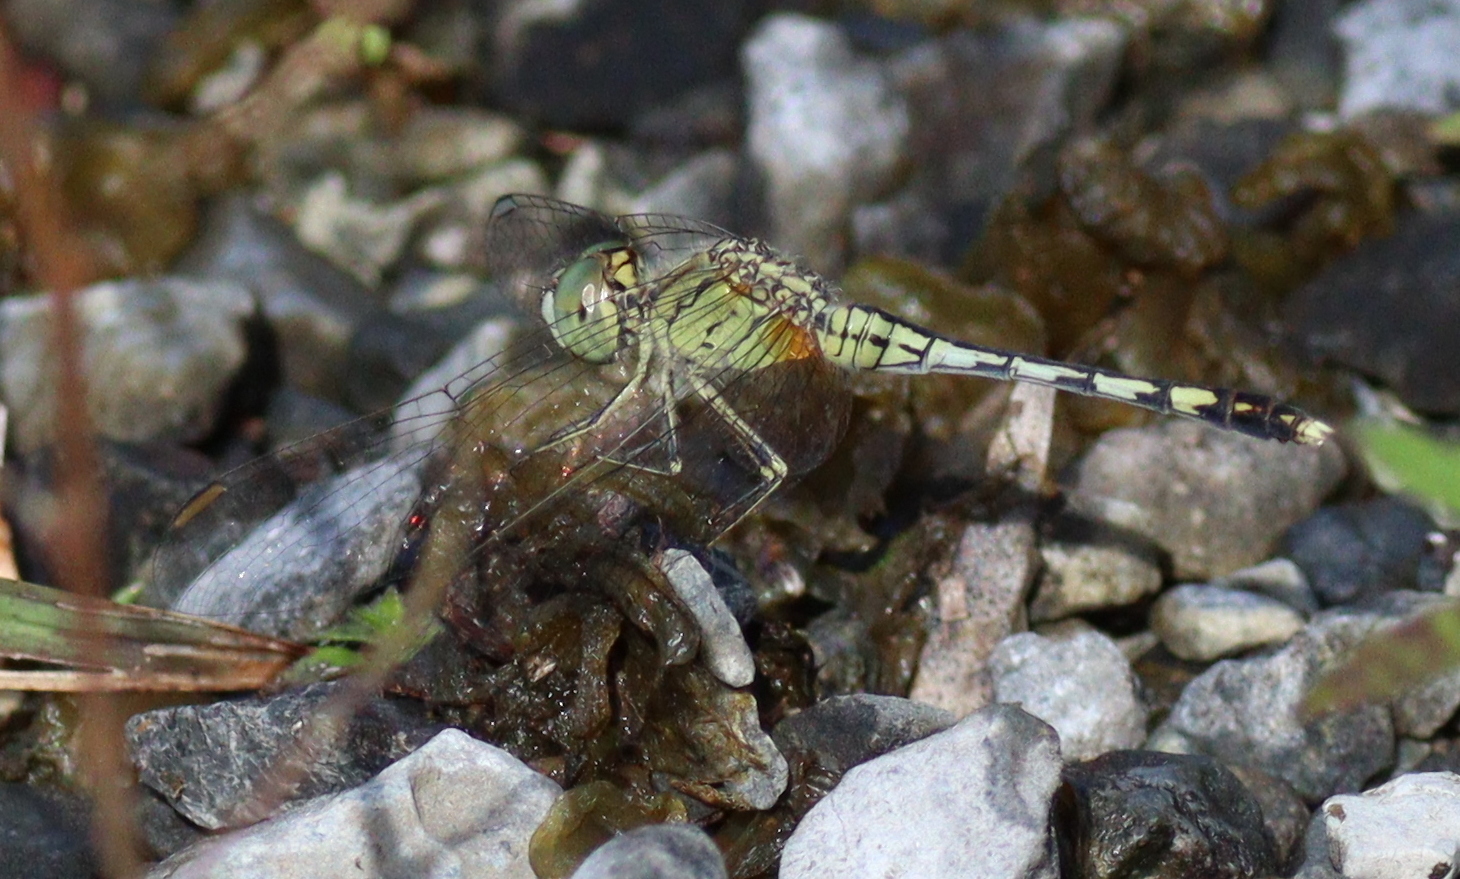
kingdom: Animalia
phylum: Arthropoda
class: Insecta
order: Odonata
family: Libellulidae
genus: Diplacodes
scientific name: Diplacodes trivialis
